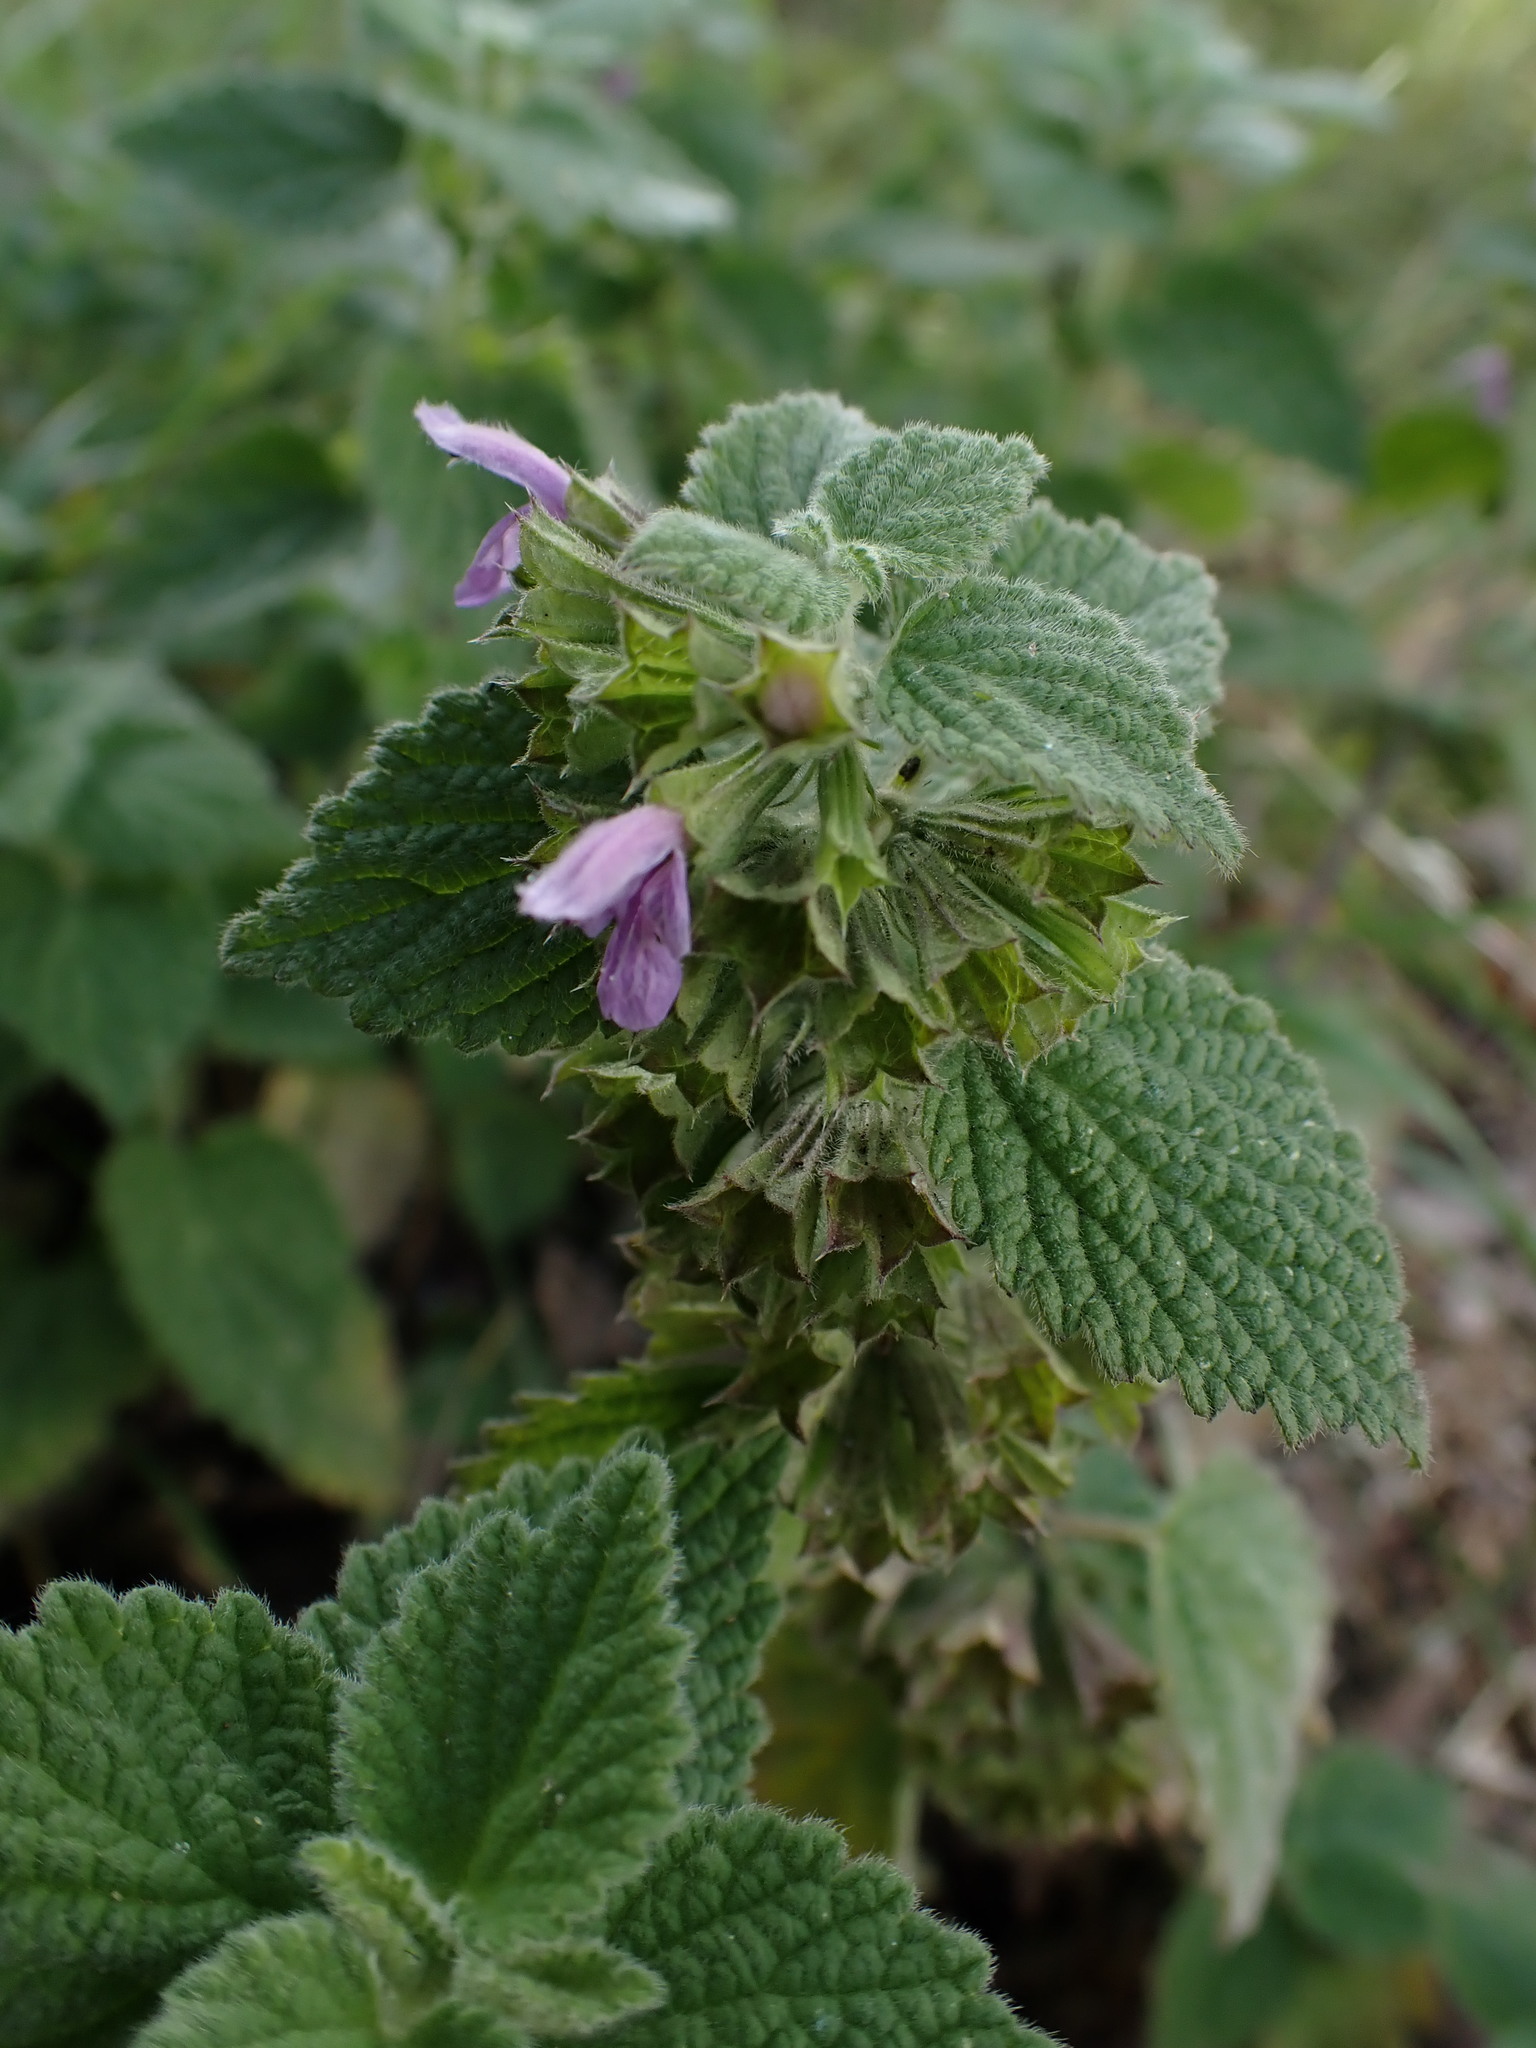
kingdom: Plantae
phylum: Tracheophyta
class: Magnoliopsida
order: Lamiales
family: Lamiaceae
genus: Ballota
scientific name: Ballota nigra
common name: Black horehound
